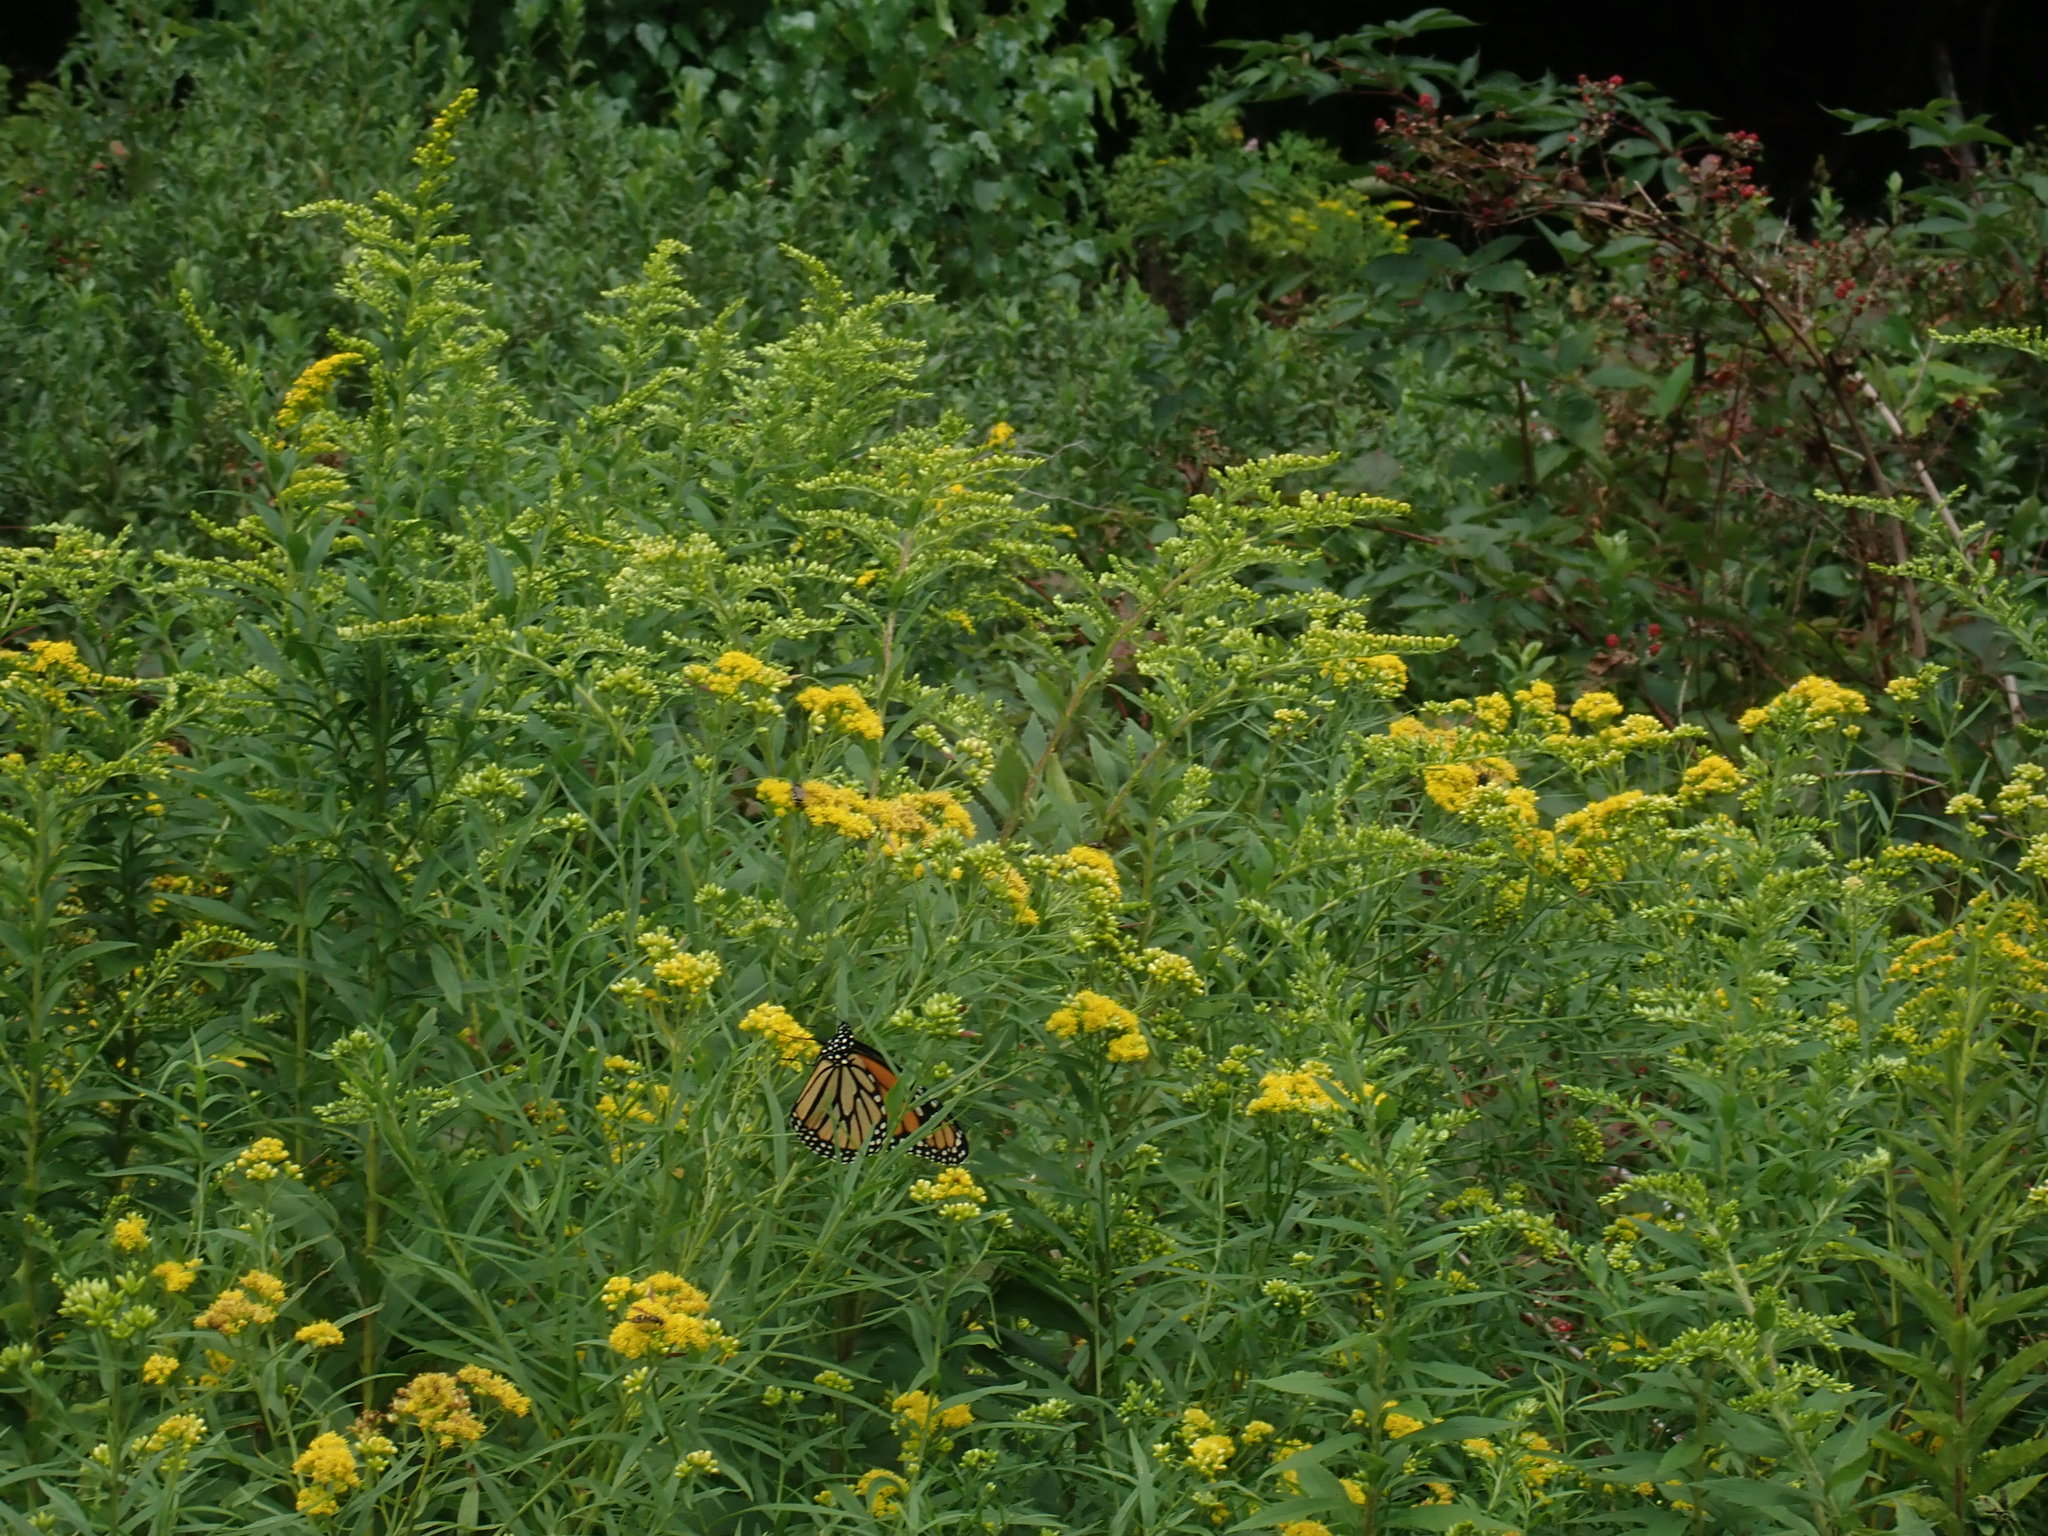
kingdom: Animalia
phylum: Arthropoda
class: Insecta
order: Lepidoptera
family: Nymphalidae
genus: Danaus
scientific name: Danaus plexippus
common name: Monarch
